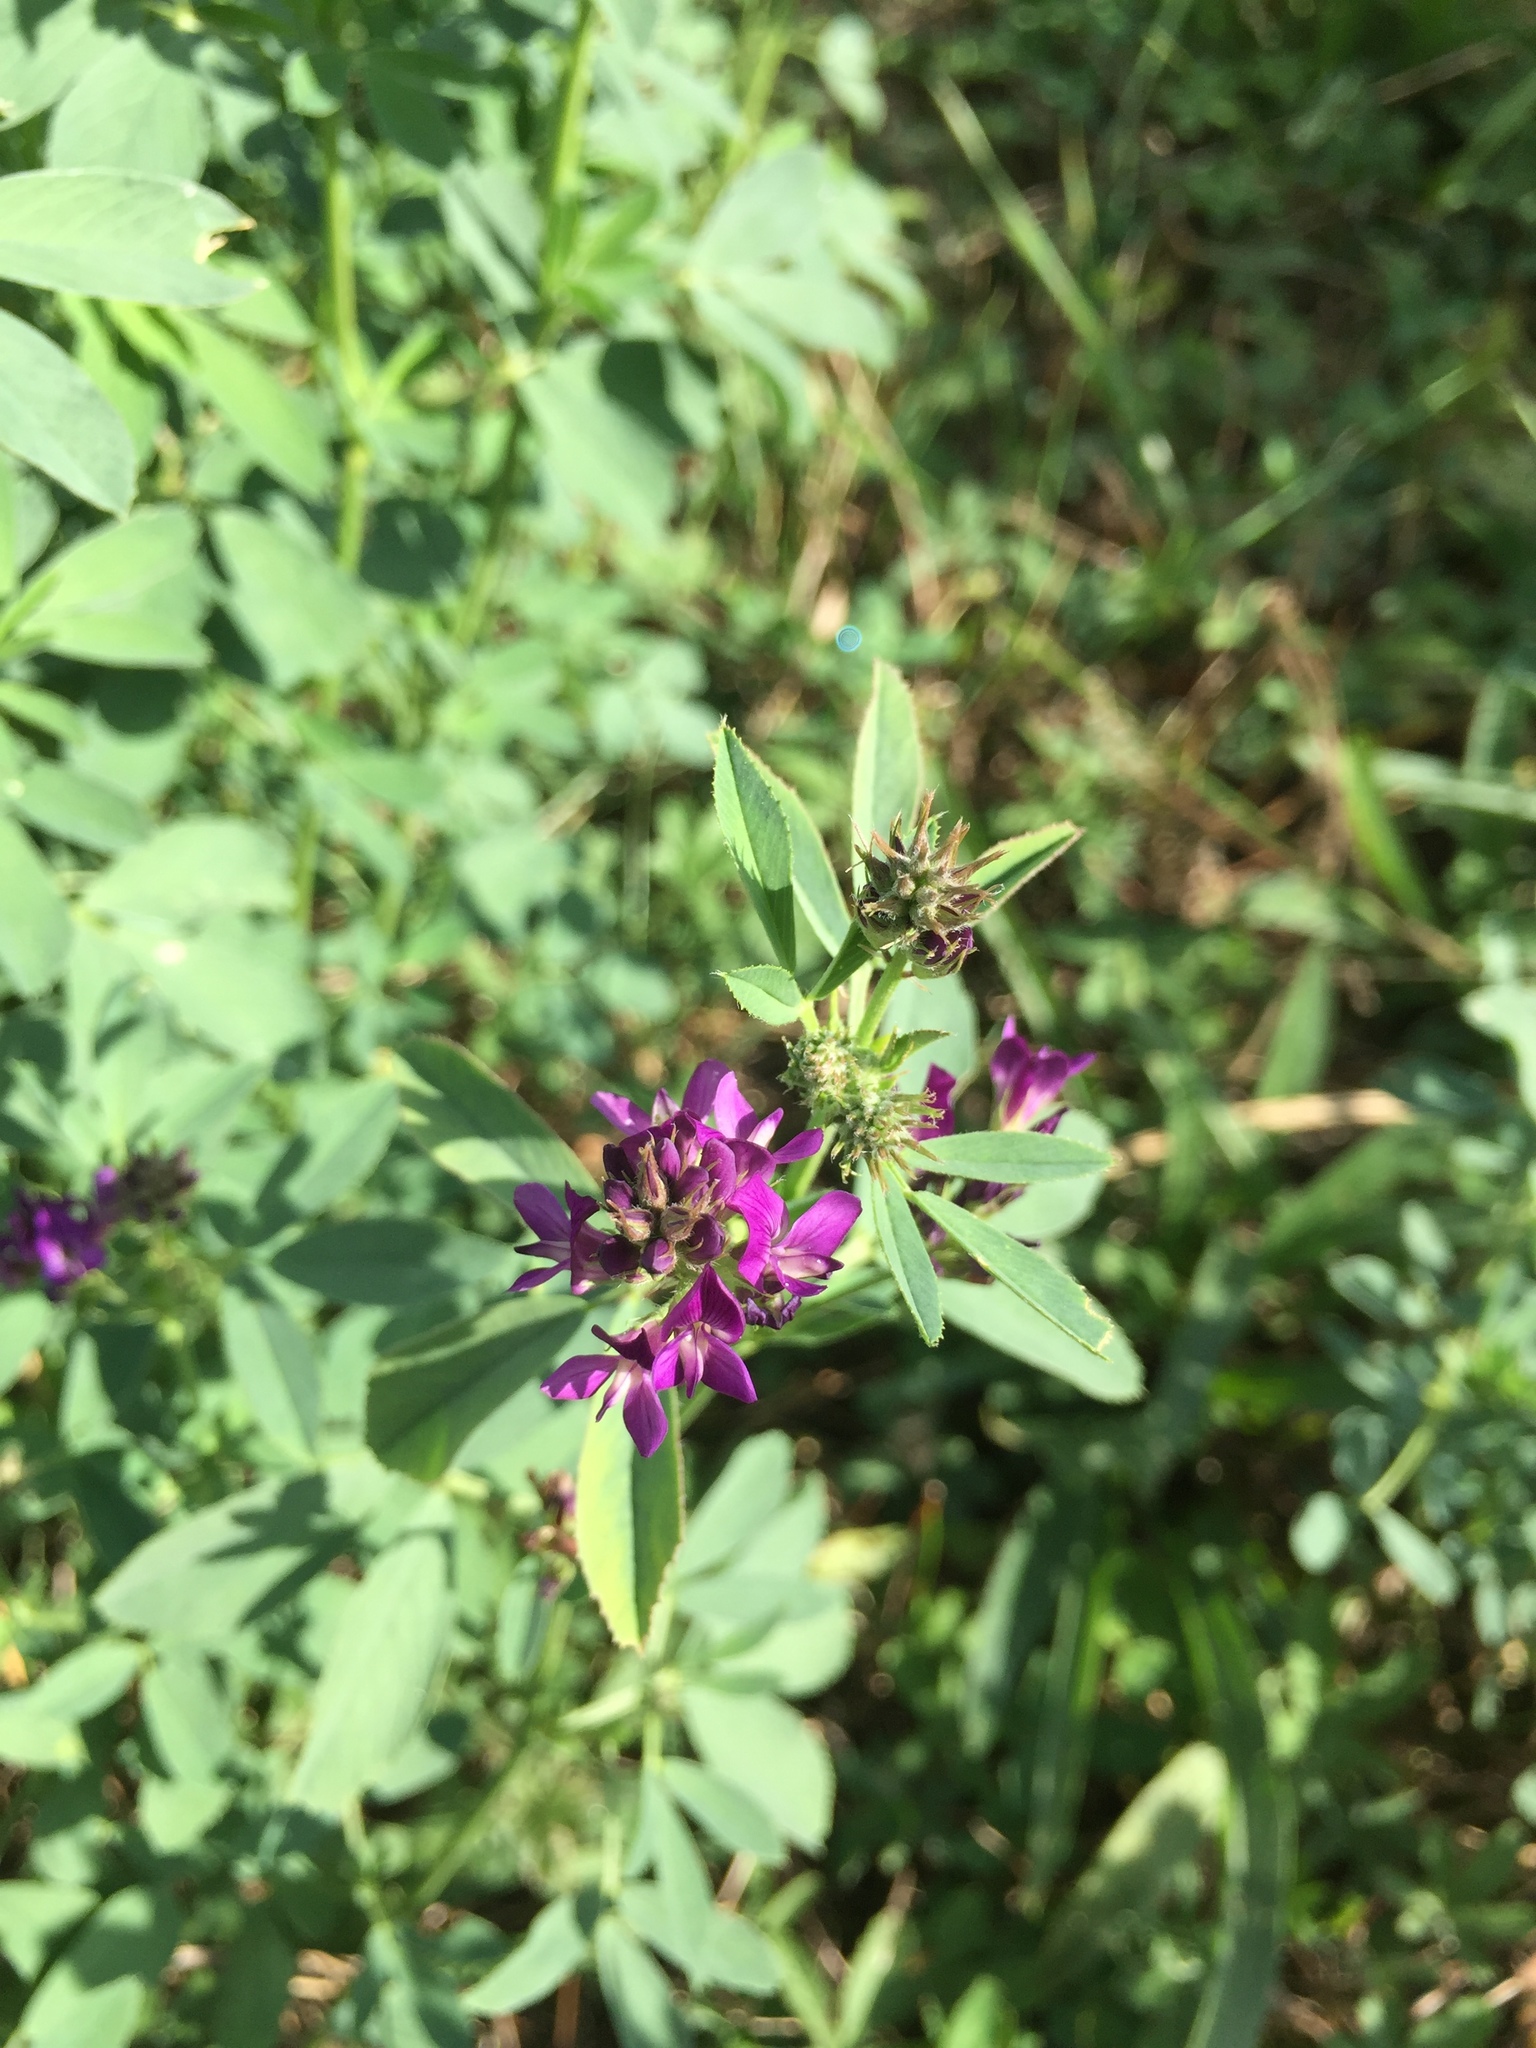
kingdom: Plantae
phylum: Tracheophyta
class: Magnoliopsida
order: Fabales
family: Fabaceae
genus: Medicago
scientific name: Medicago sativa
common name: Alfalfa
